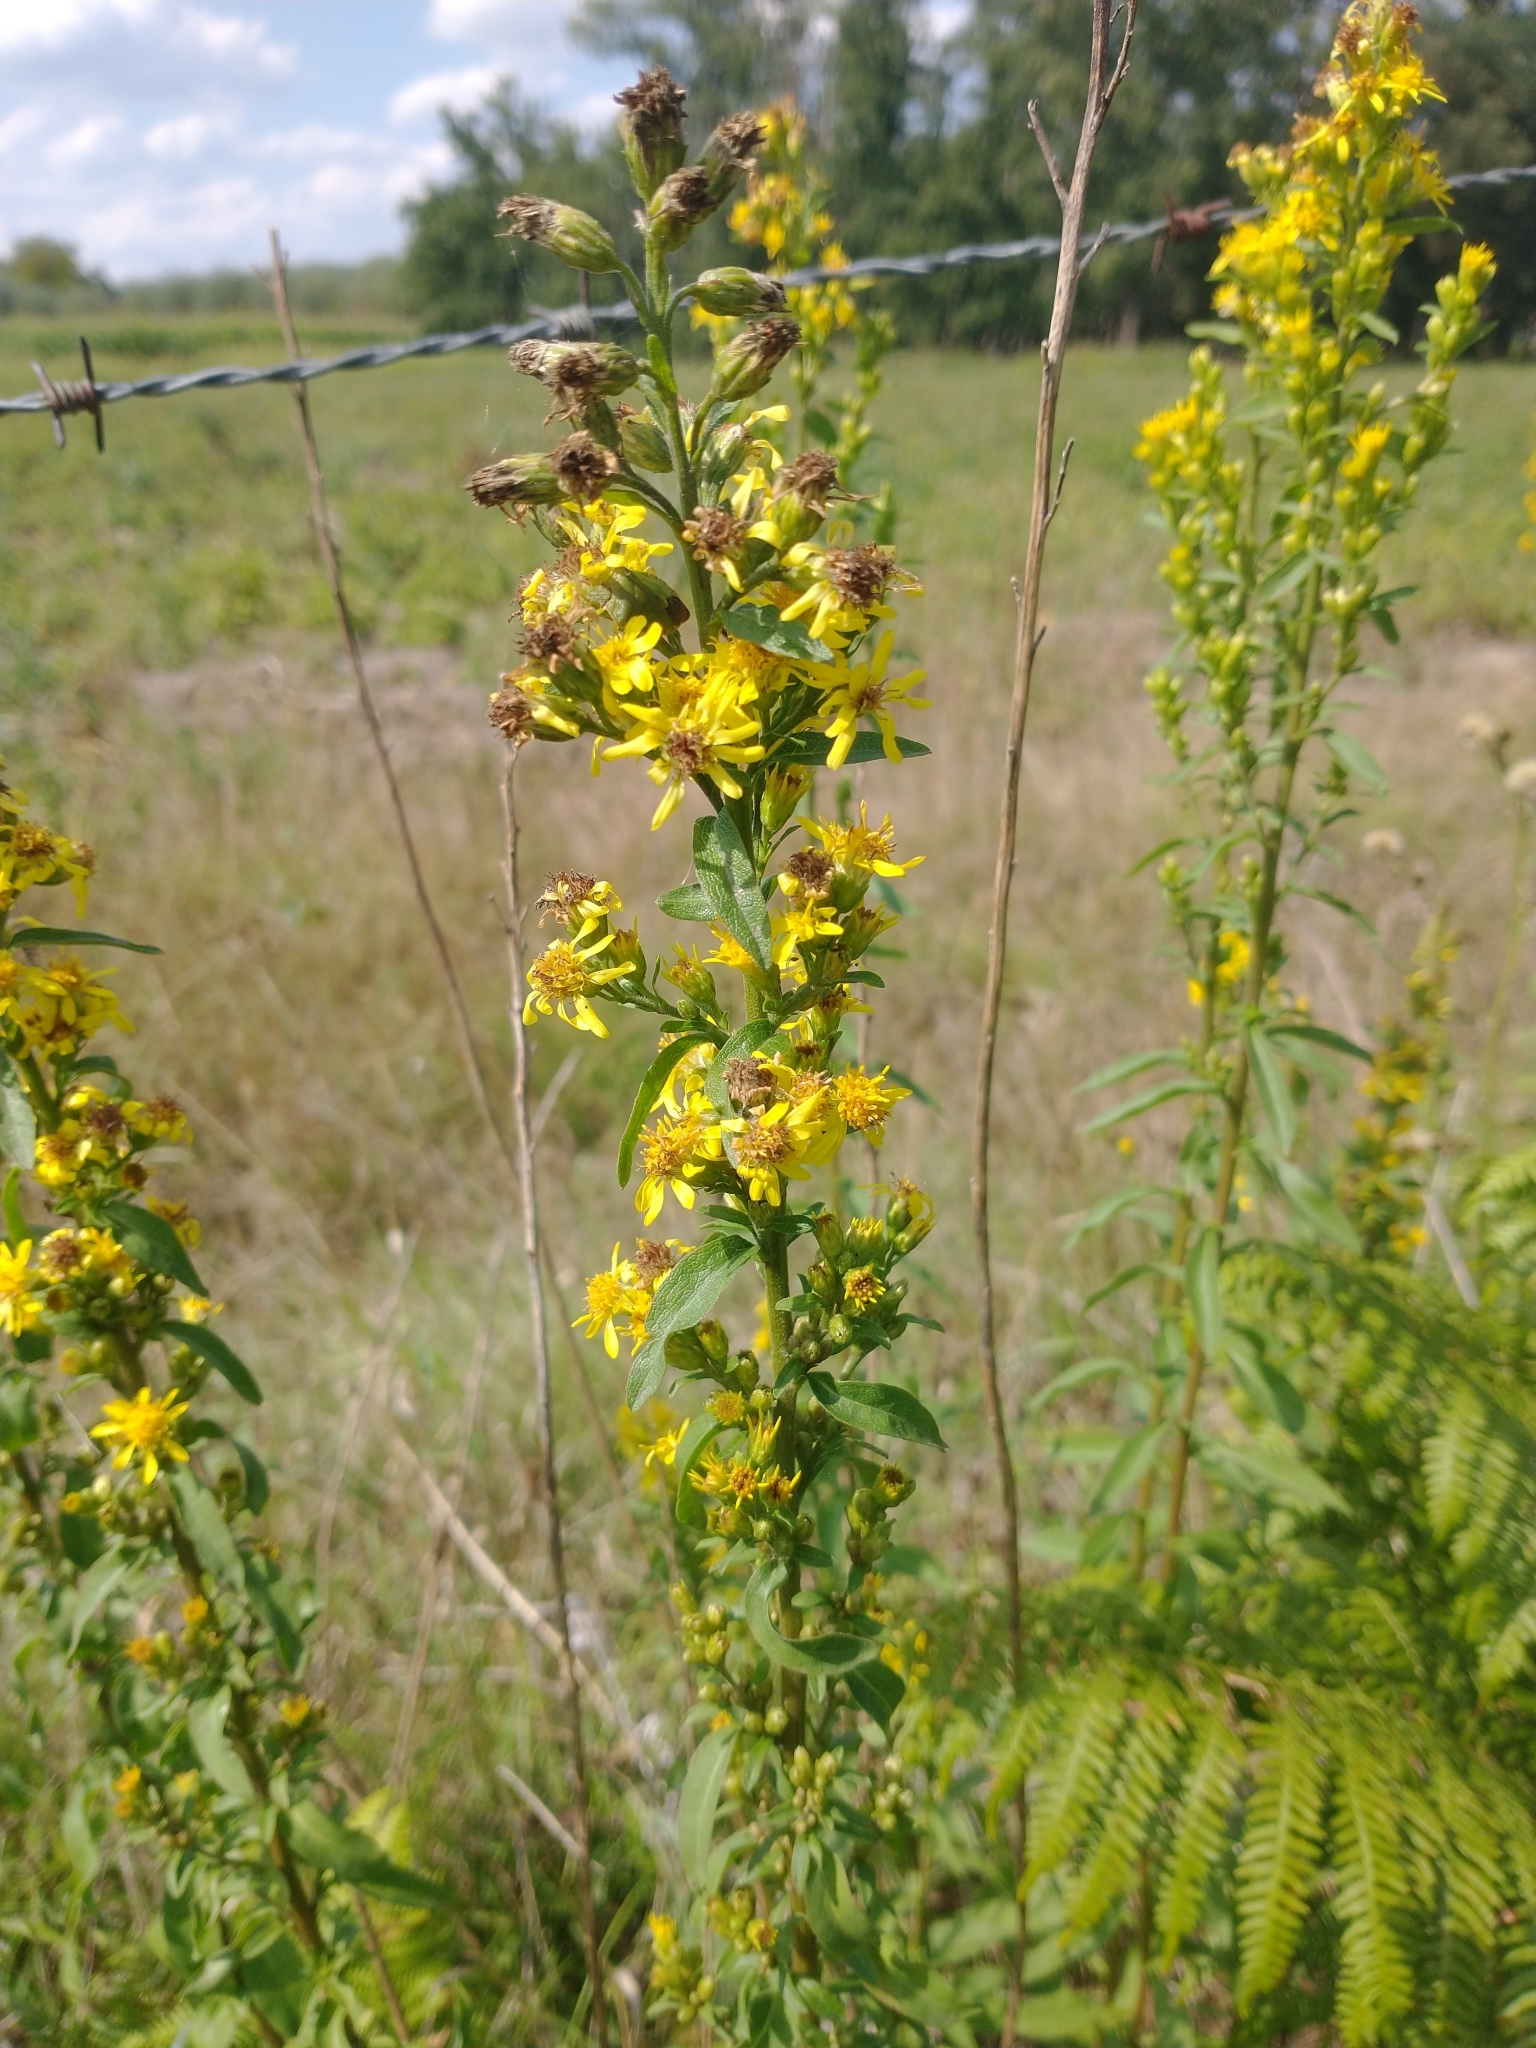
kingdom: Plantae
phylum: Tracheophyta
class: Magnoliopsida
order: Asterales
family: Asteraceae
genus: Solidago
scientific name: Solidago virgaurea
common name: Goldenrod
